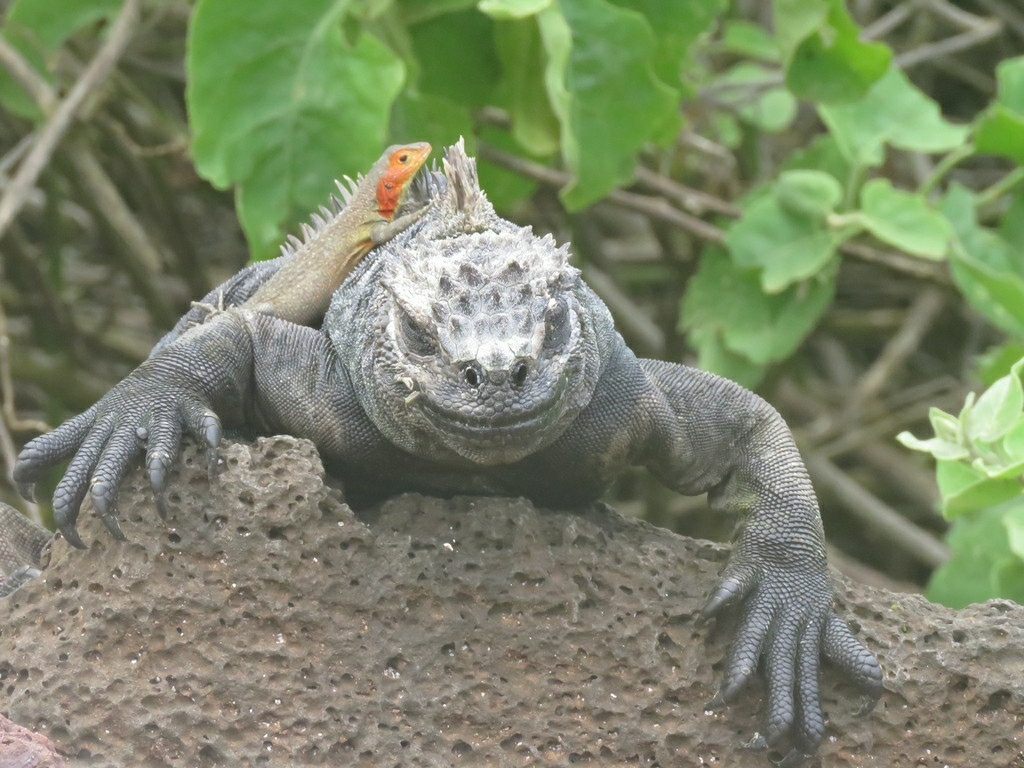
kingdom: Animalia
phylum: Chordata
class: Squamata
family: Tropiduridae
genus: Microlophus
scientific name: Microlophus indefatigabilis
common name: Galapagos lava lizard
